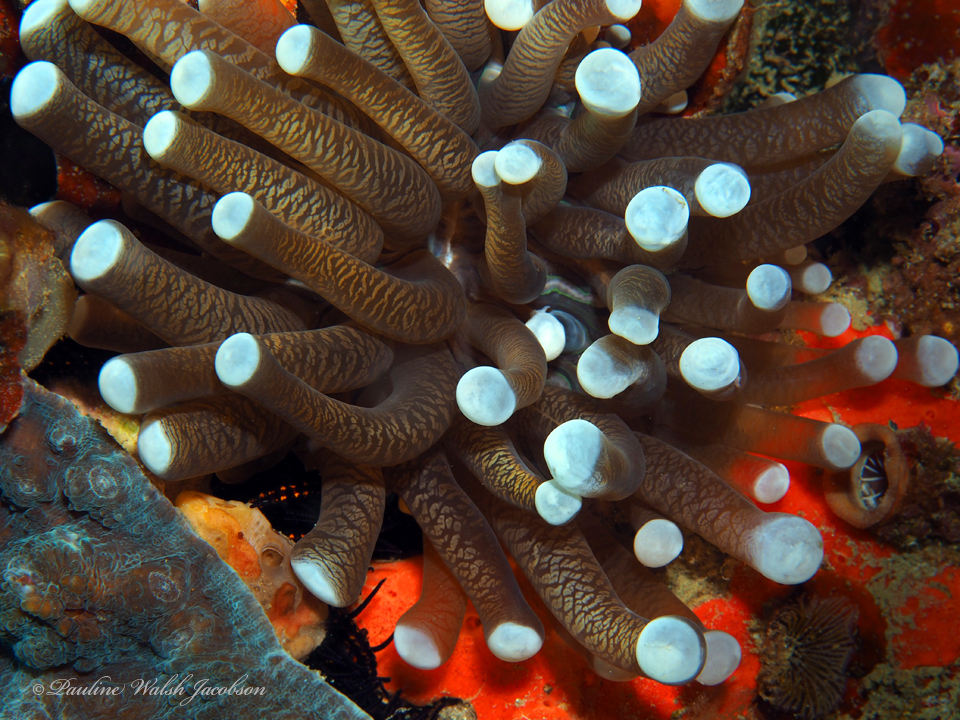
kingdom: Animalia
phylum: Cnidaria
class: Anthozoa
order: Scleractinia
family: Fungiidae
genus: Heliofungia
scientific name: Heliofungia actiniformis
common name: Plate coral
